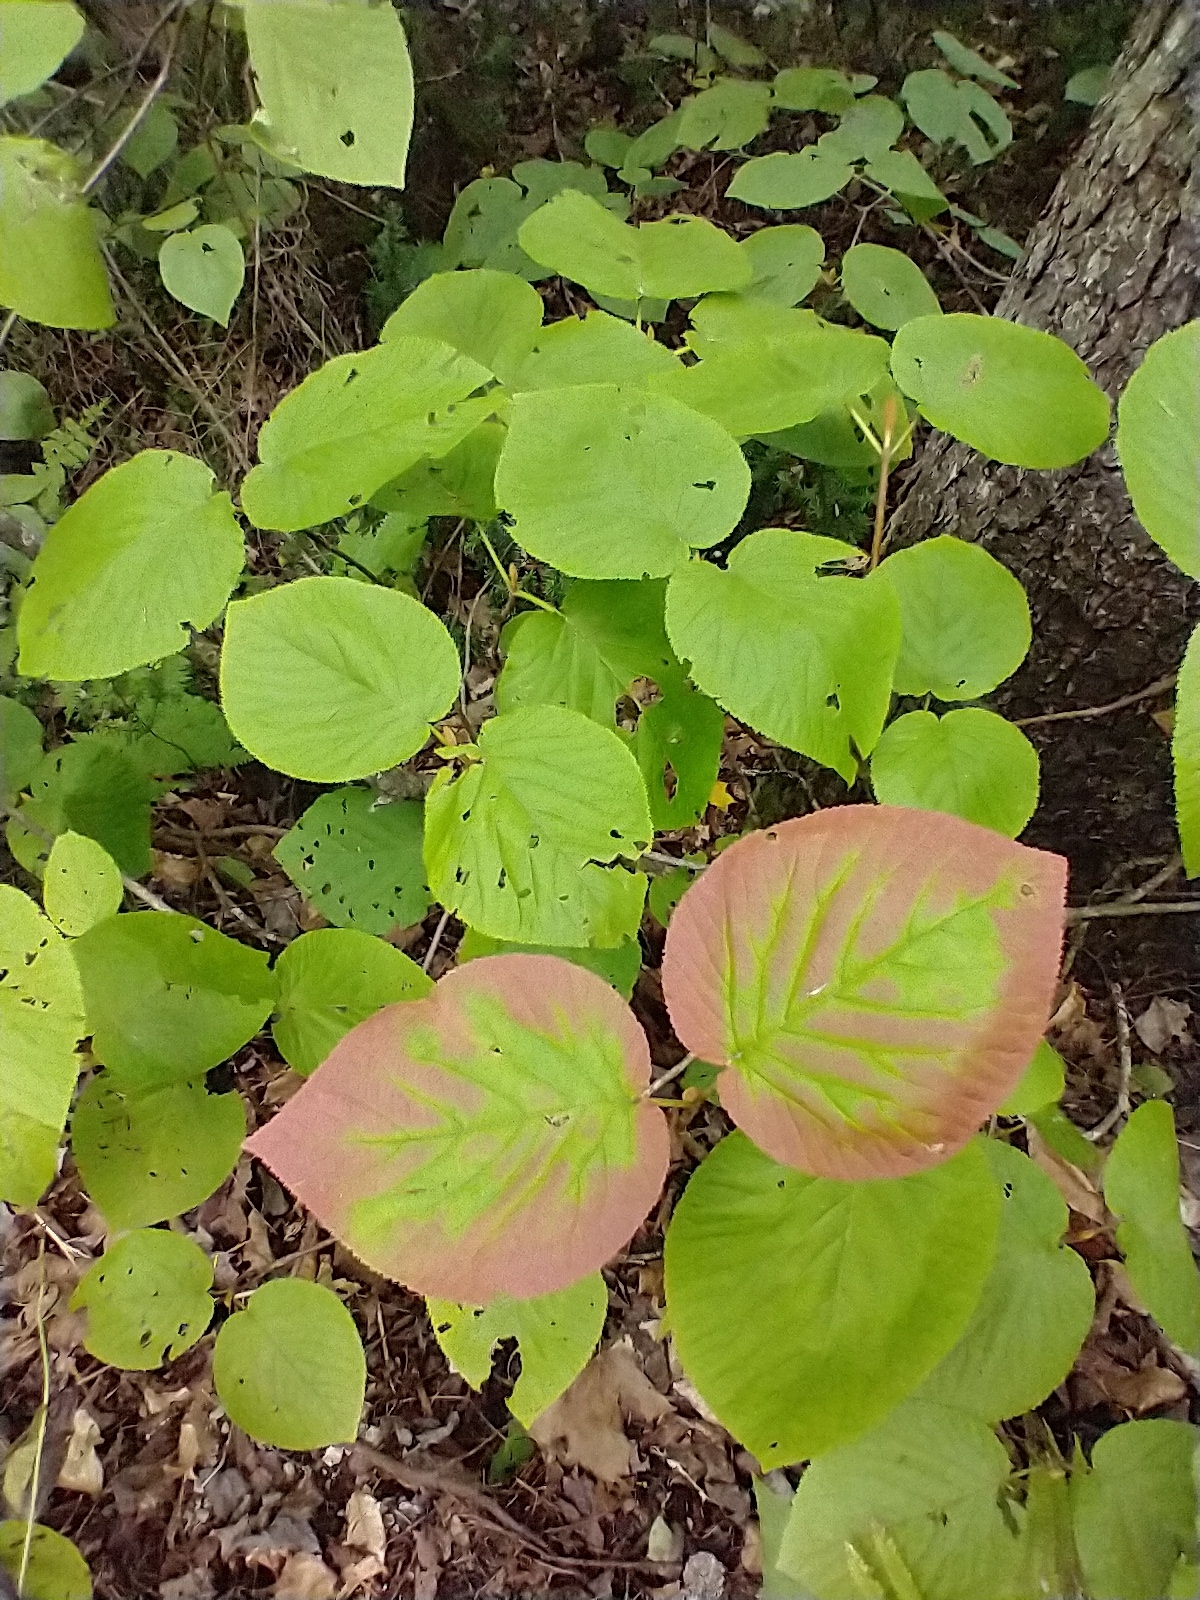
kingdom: Plantae
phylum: Tracheophyta
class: Magnoliopsida
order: Dipsacales
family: Viburnaceae
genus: Viburnum
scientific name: Viburnum lantanoides
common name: Hobblebush
